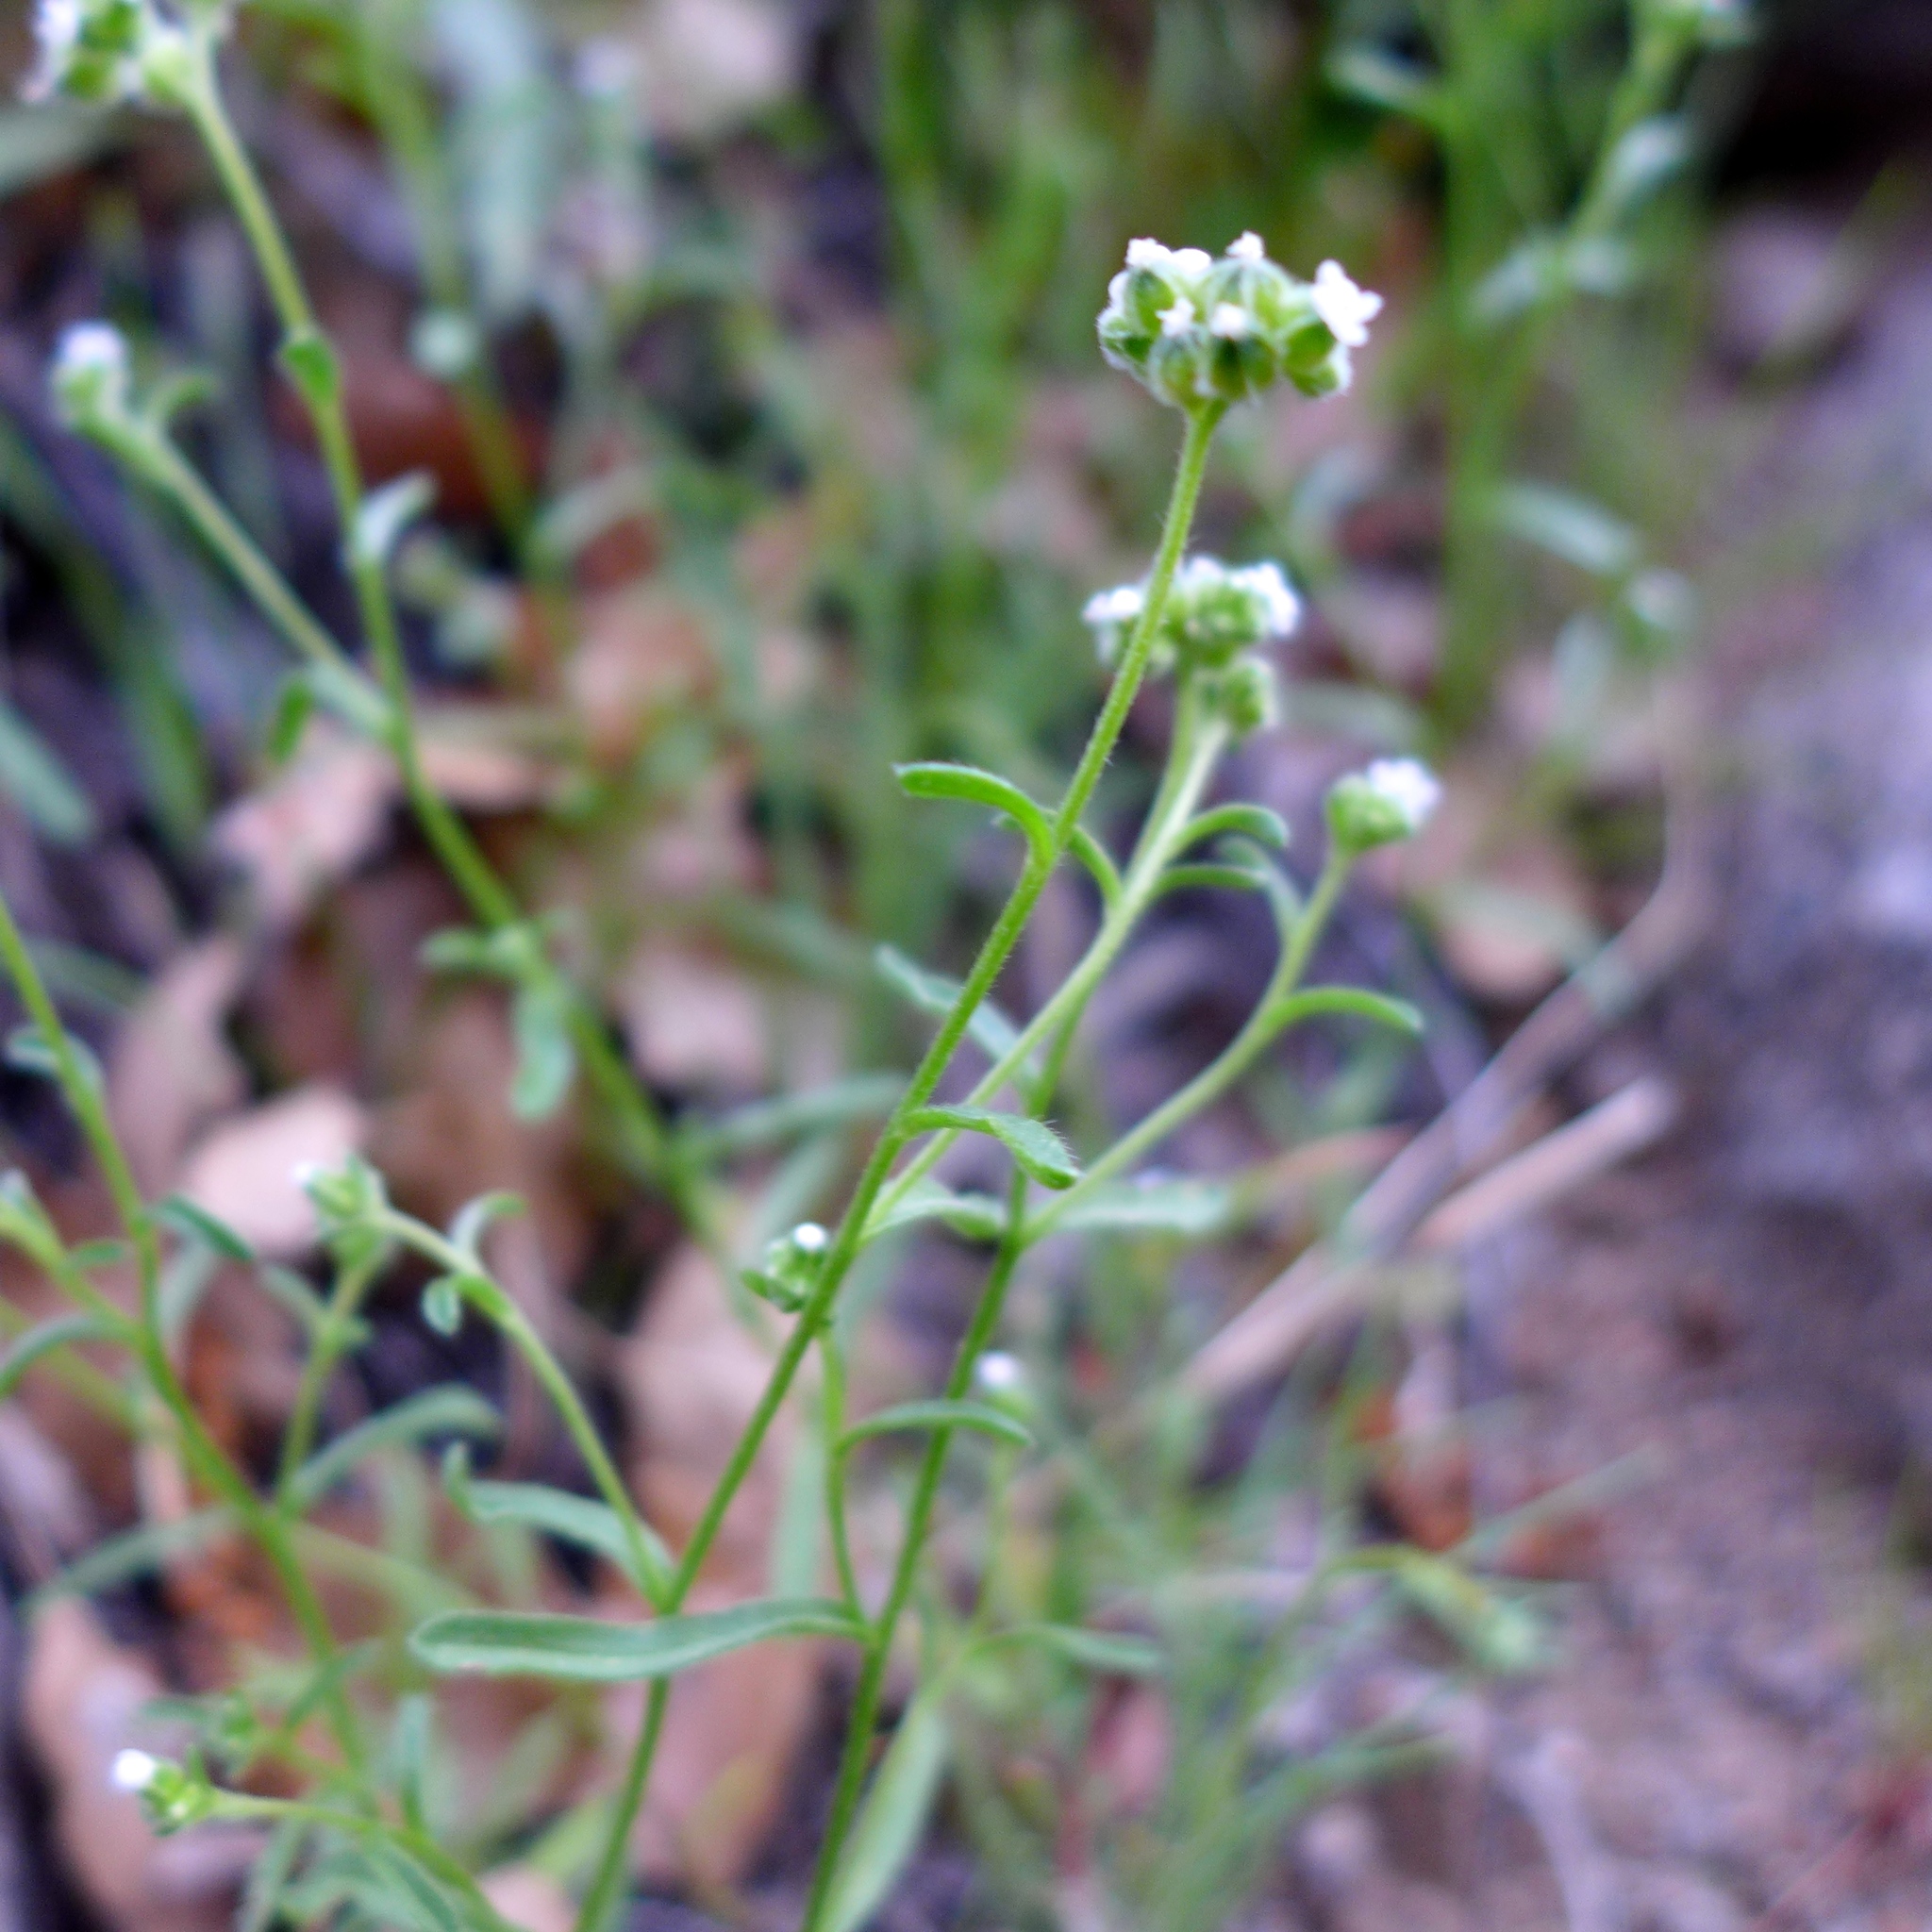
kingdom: Plantae
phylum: Tracheophyta
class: Magnoliopsida
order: Boraginales
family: Boraginaceae
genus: Cryptantha
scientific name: Cryptantha pterocarya
